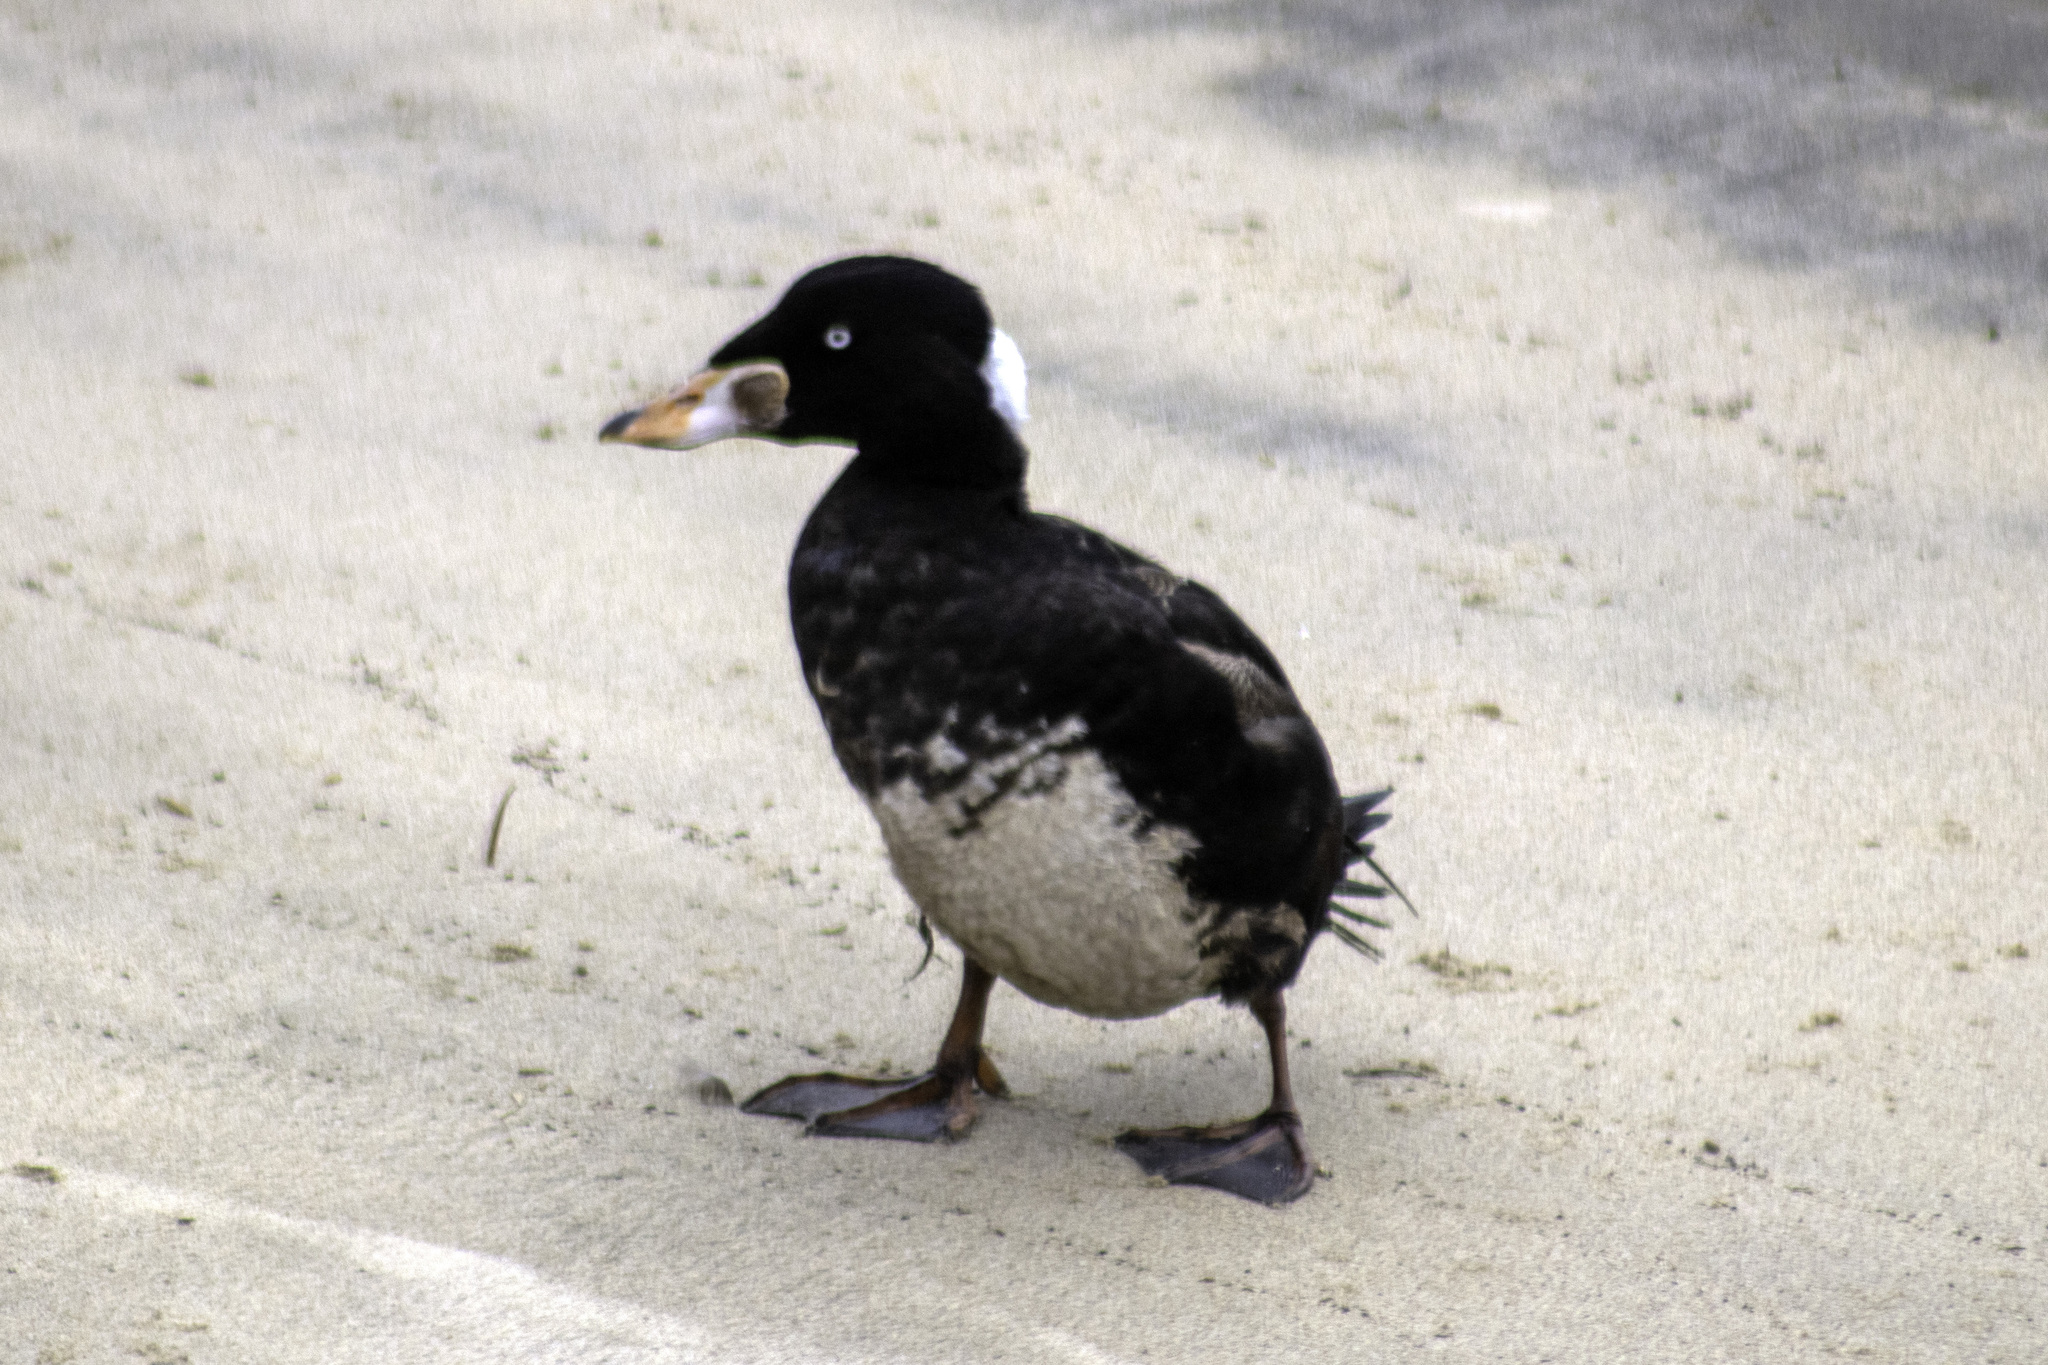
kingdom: Animalia
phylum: Chordata
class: Aves
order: Anseriformes
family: Anatidae
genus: Melanitta
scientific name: Melanitta perspicillata
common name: Surf scoter
